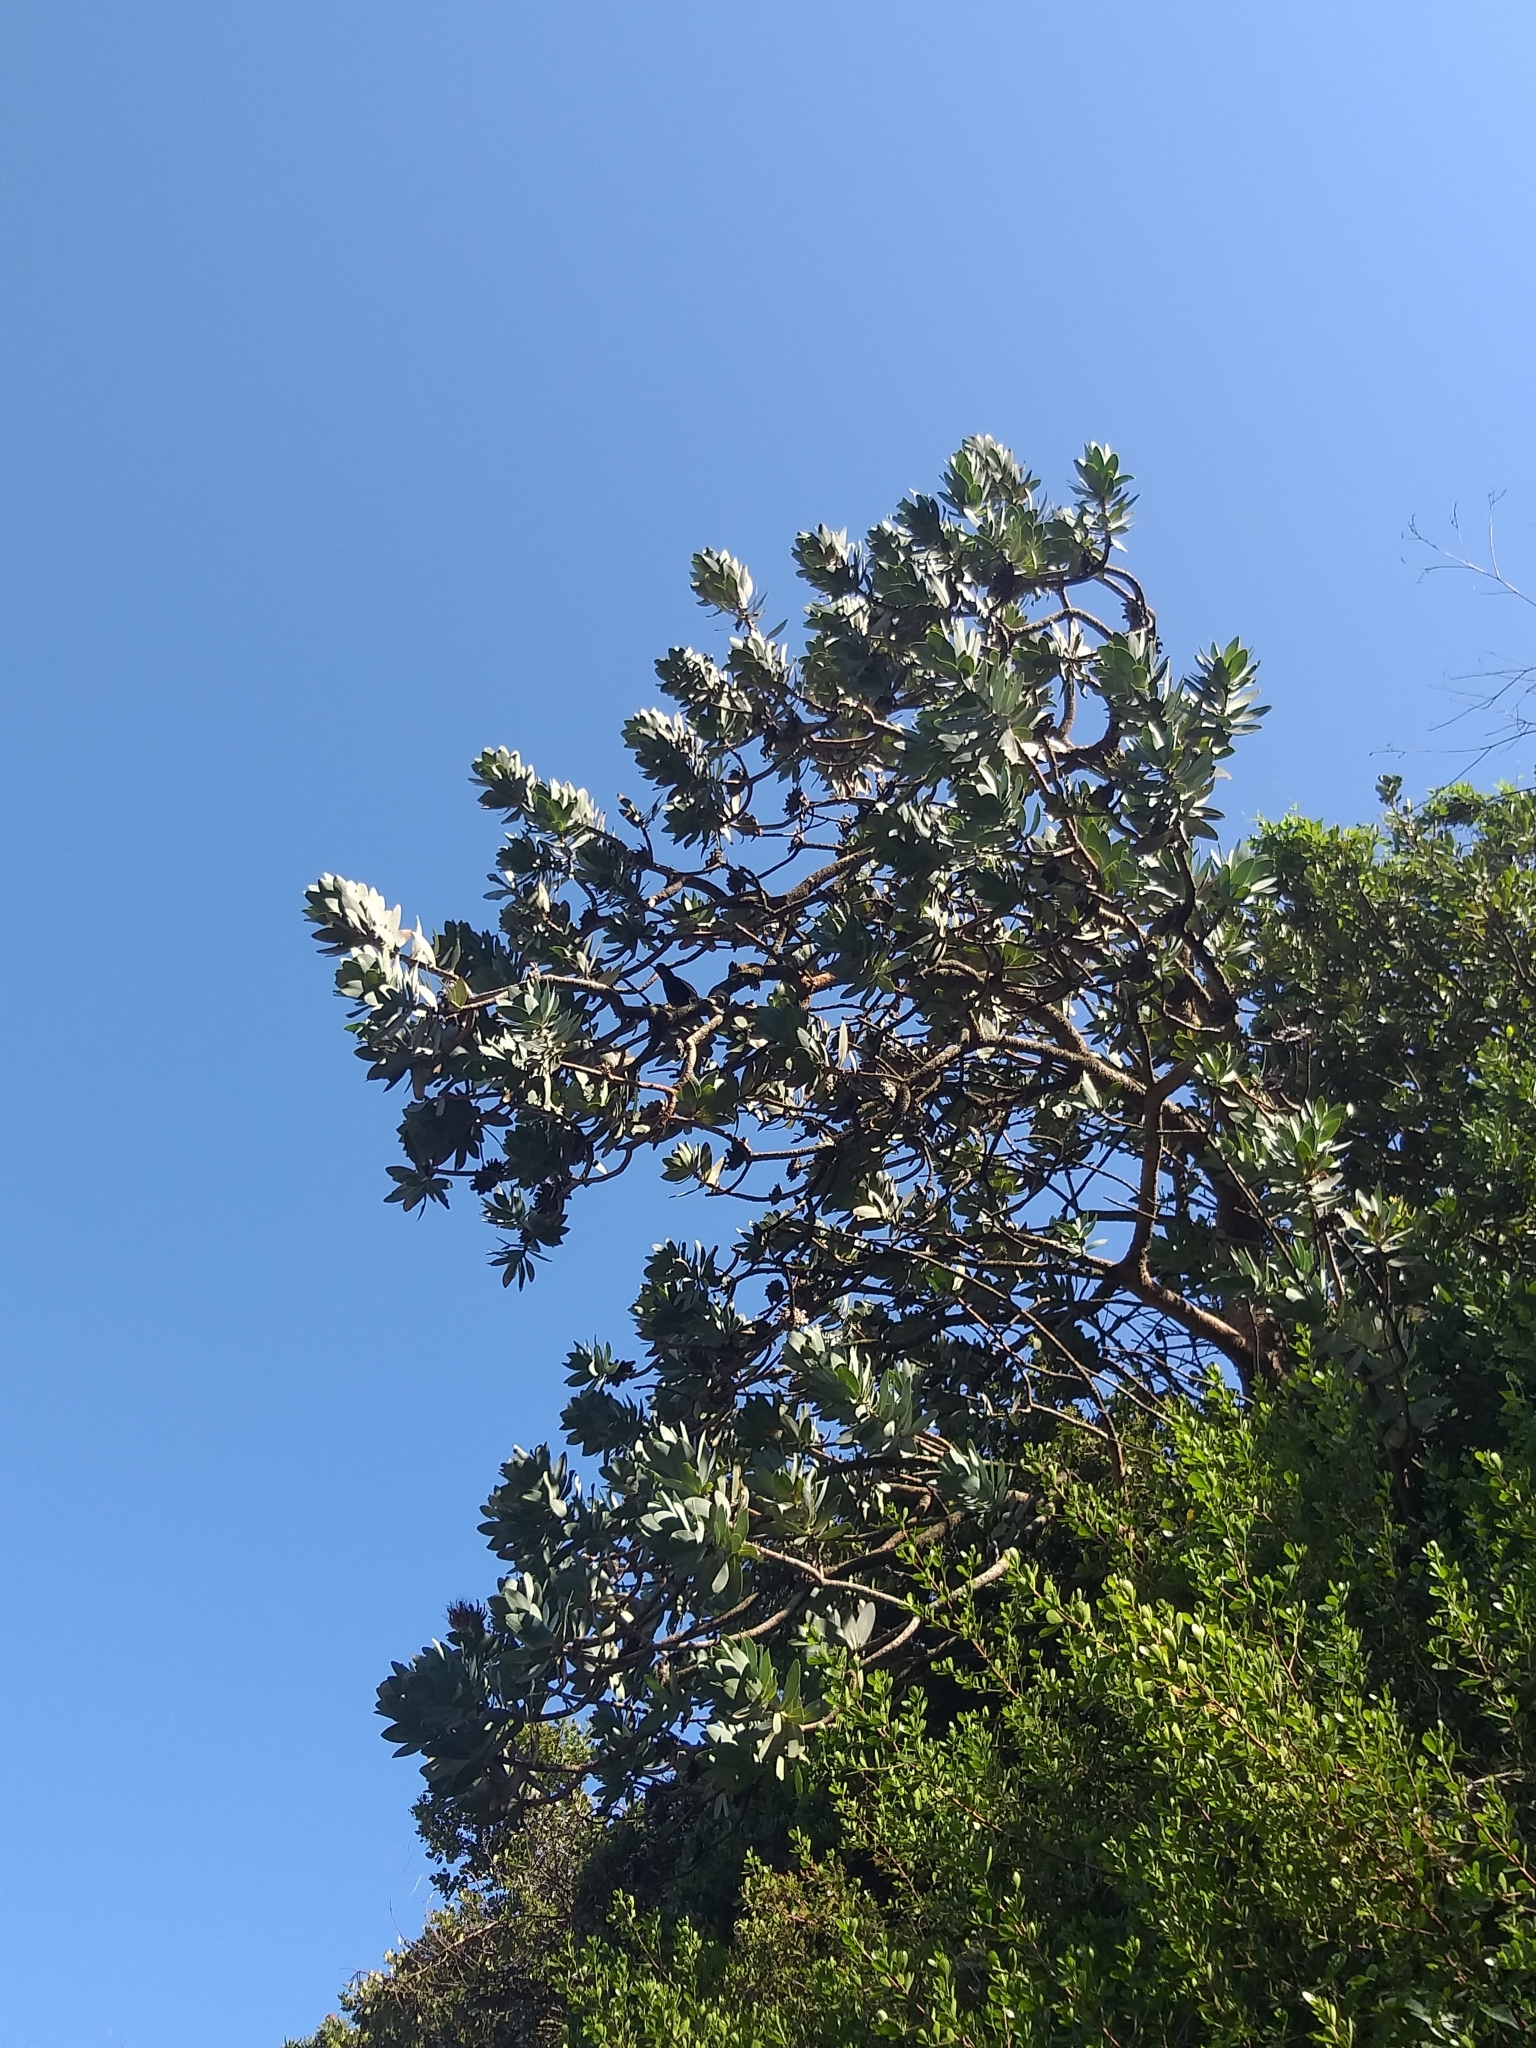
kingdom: Plantae
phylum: Tracheophyta
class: Magnoliopsida
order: Proteales
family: Proteaceae
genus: Protea
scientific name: Protea nitida
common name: Tree protea
